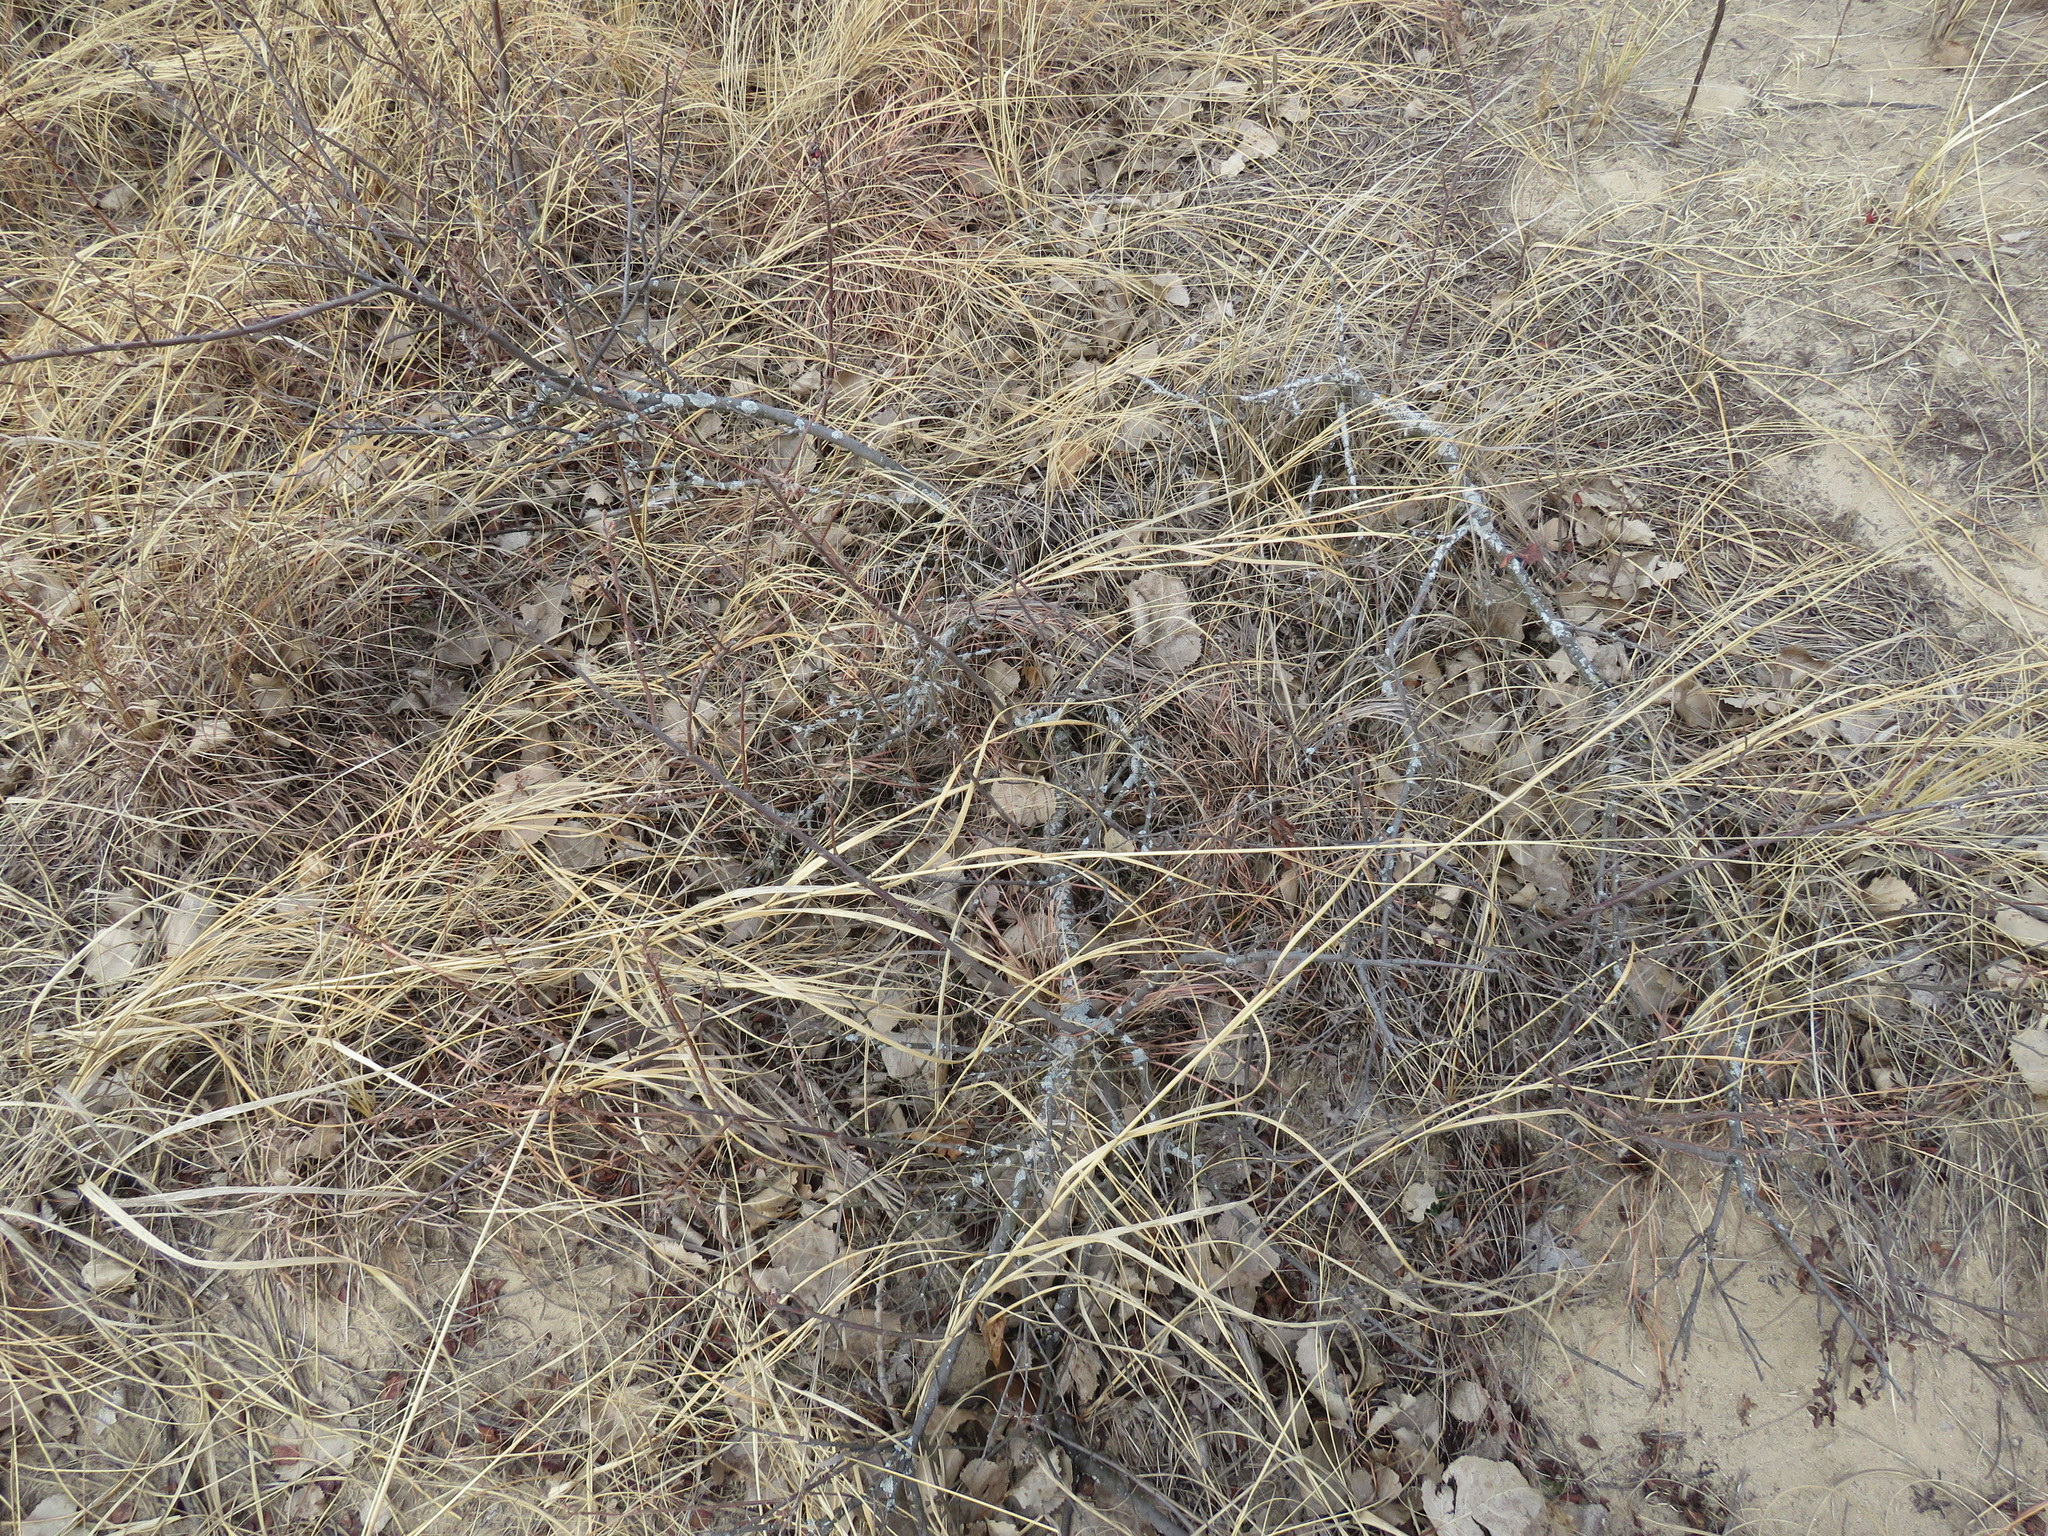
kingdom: Plantae
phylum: Tracheophyta
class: Magnoliopsida
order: Sapindales
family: Anacardiaceae
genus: Rhus
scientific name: Rhus aromatica
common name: Aromatic sumac
